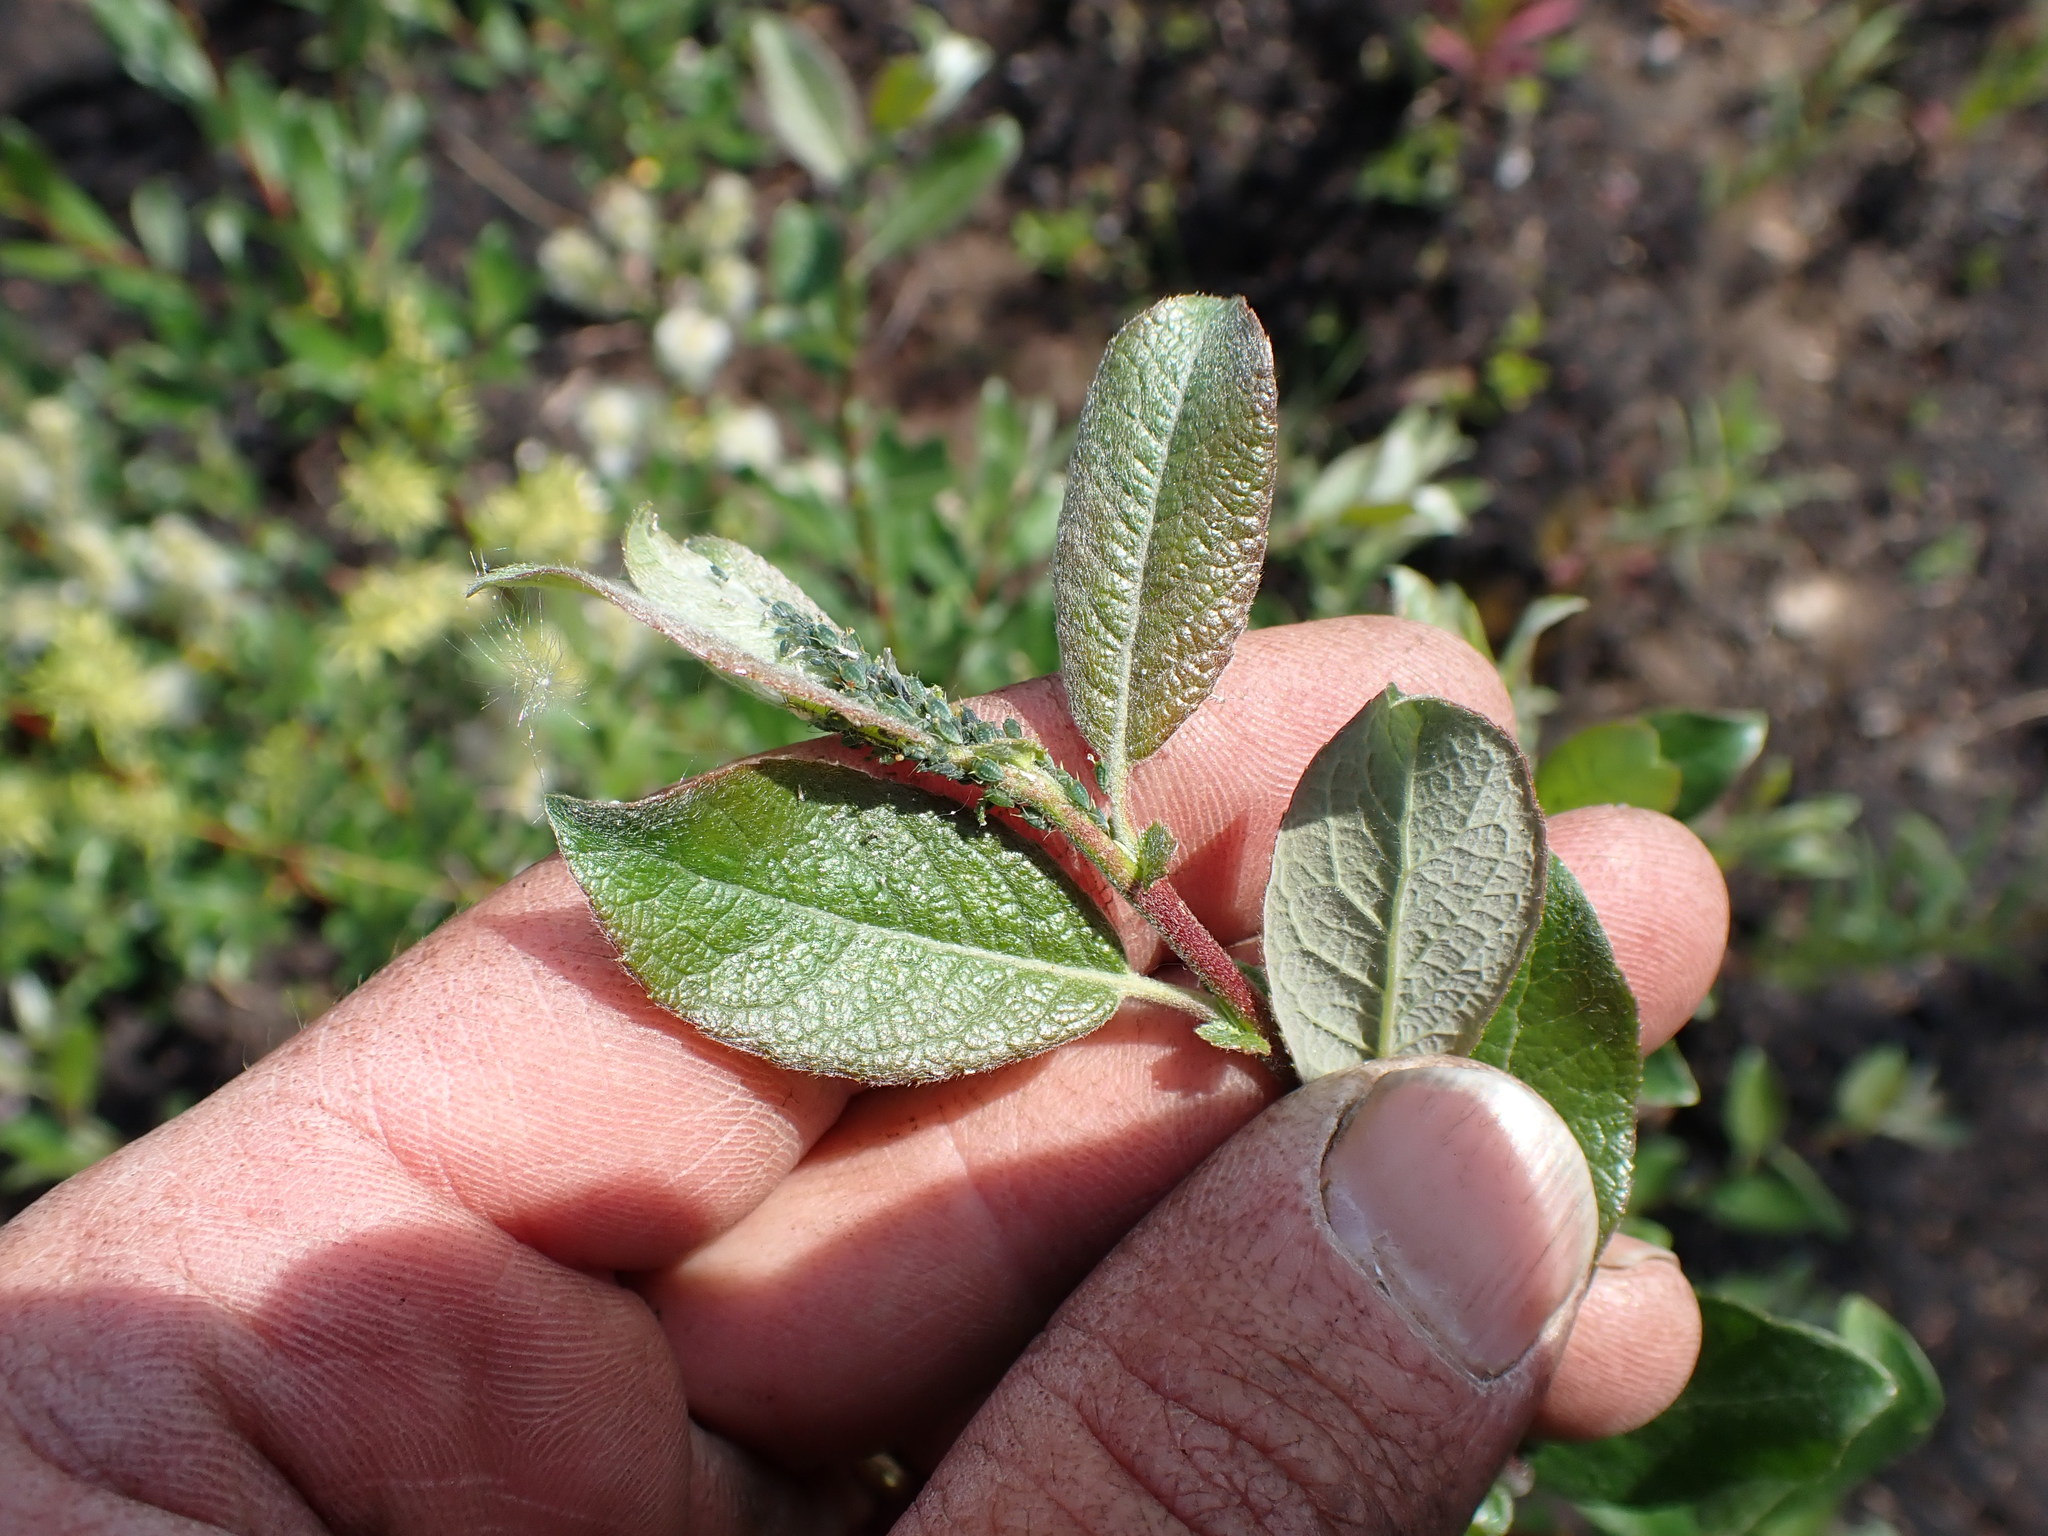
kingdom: Plantae
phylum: Tracheophyta
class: Magnoliopsida
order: Malpighiales
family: Salicaceae
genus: Salix
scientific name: Salix bebbiana
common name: Bebb's willow
